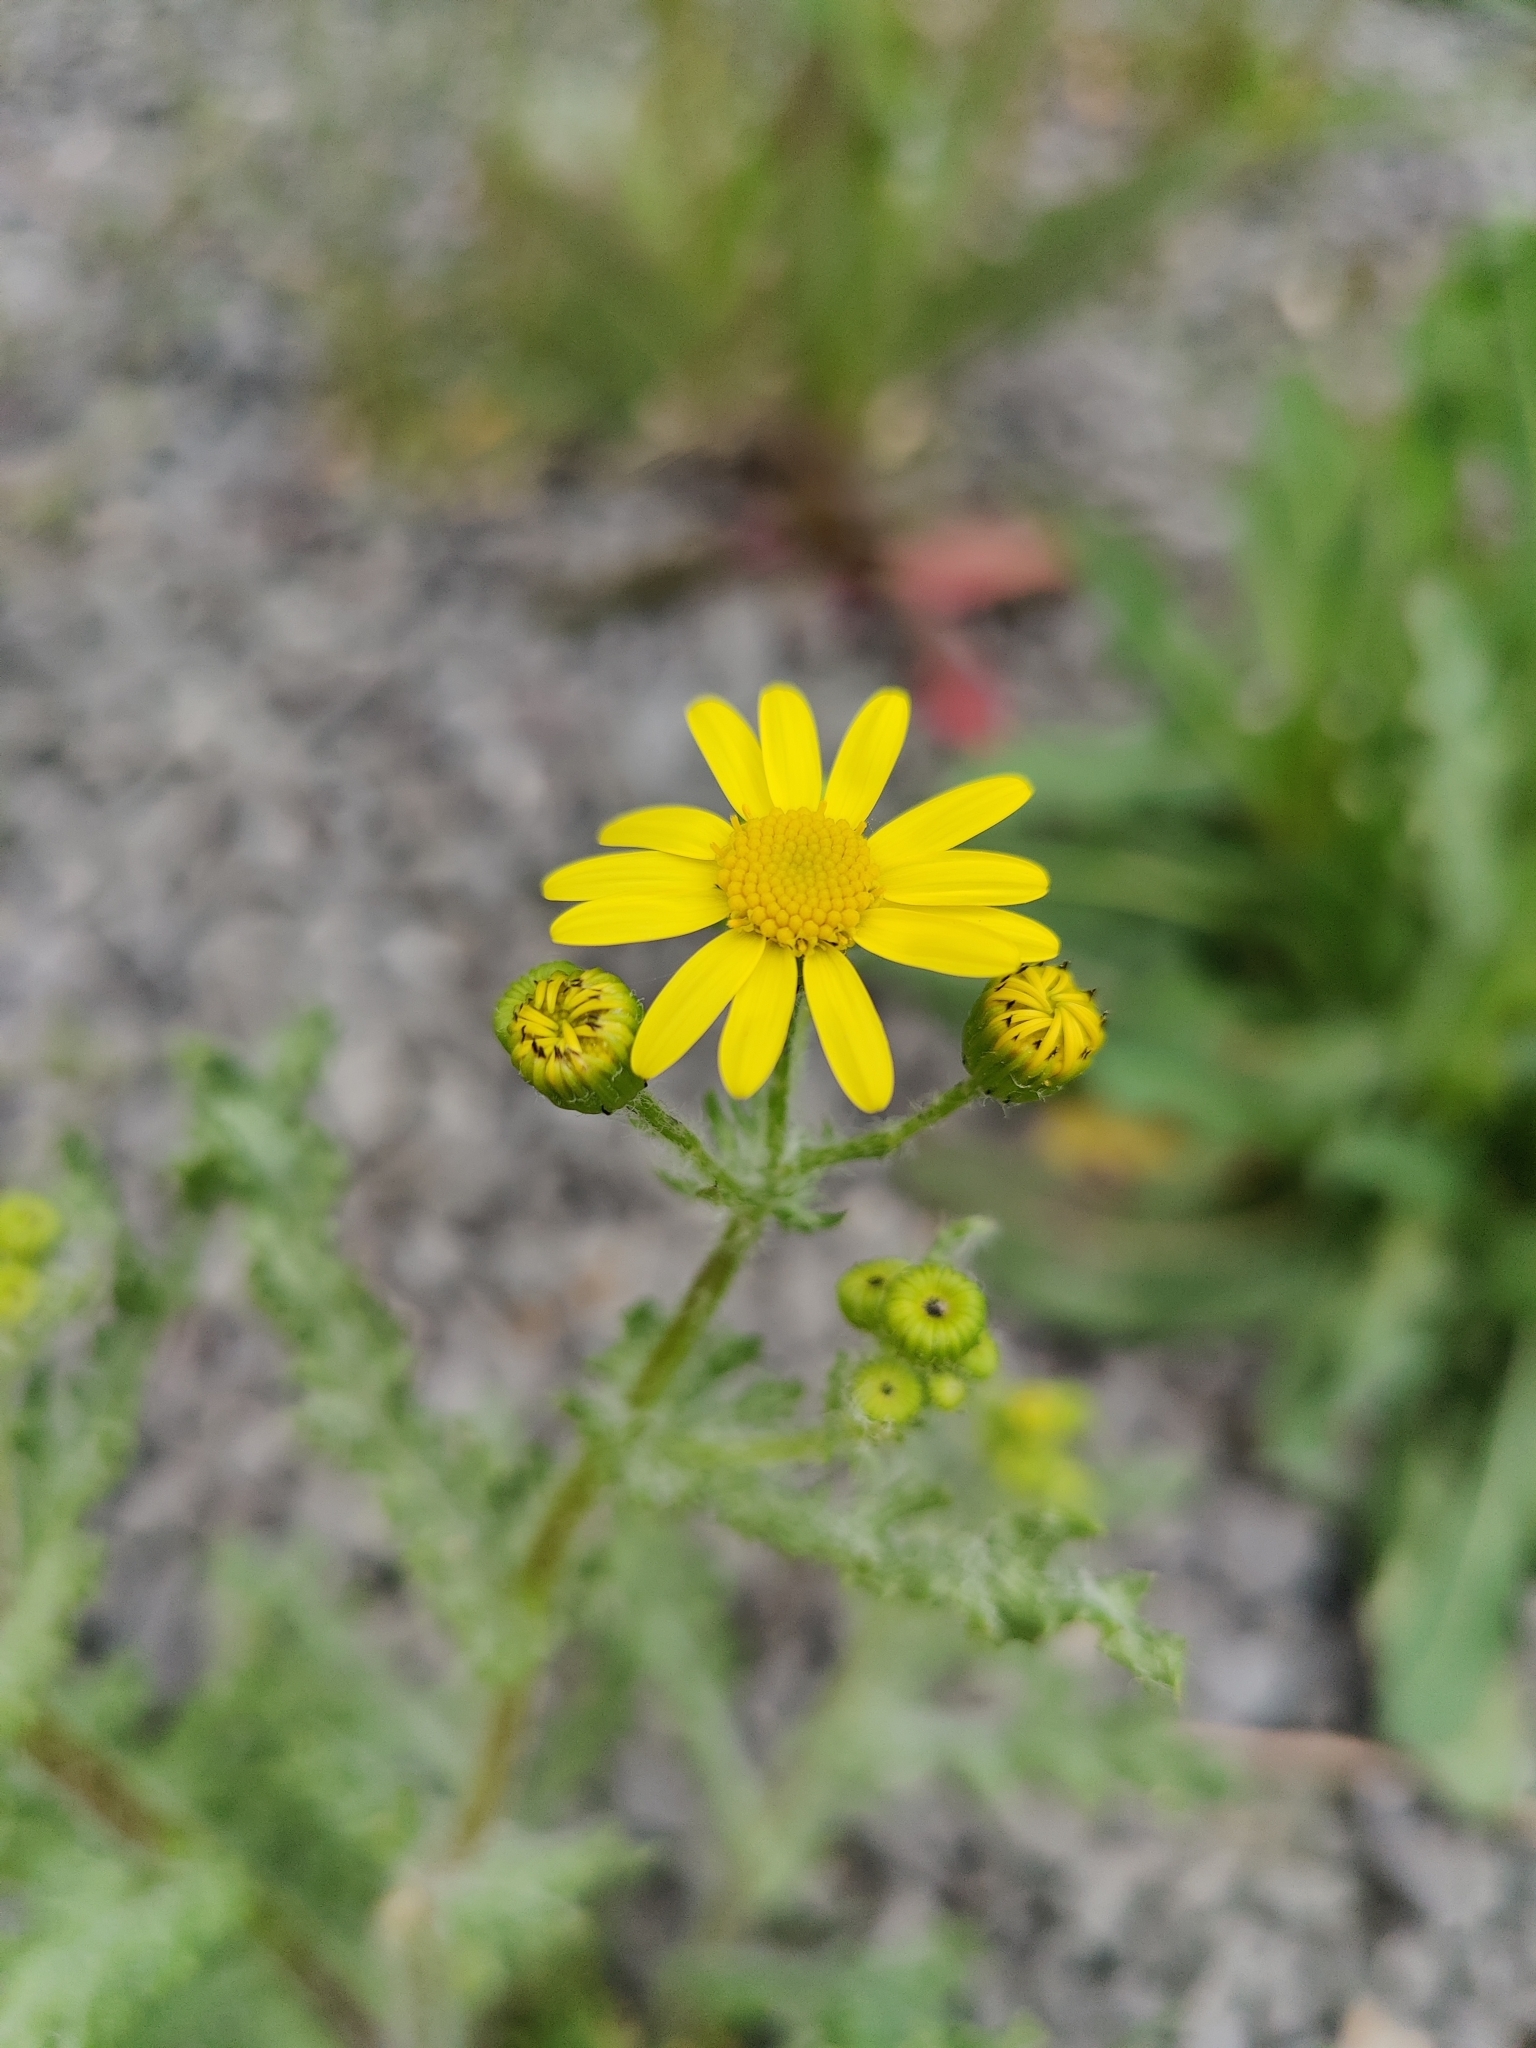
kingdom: Plantae
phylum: Tracheophyta
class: Magnoliopsida
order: Asterales
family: Asteraceae
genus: Senecio
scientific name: Senecio vernalis
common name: Eastern groundsel
